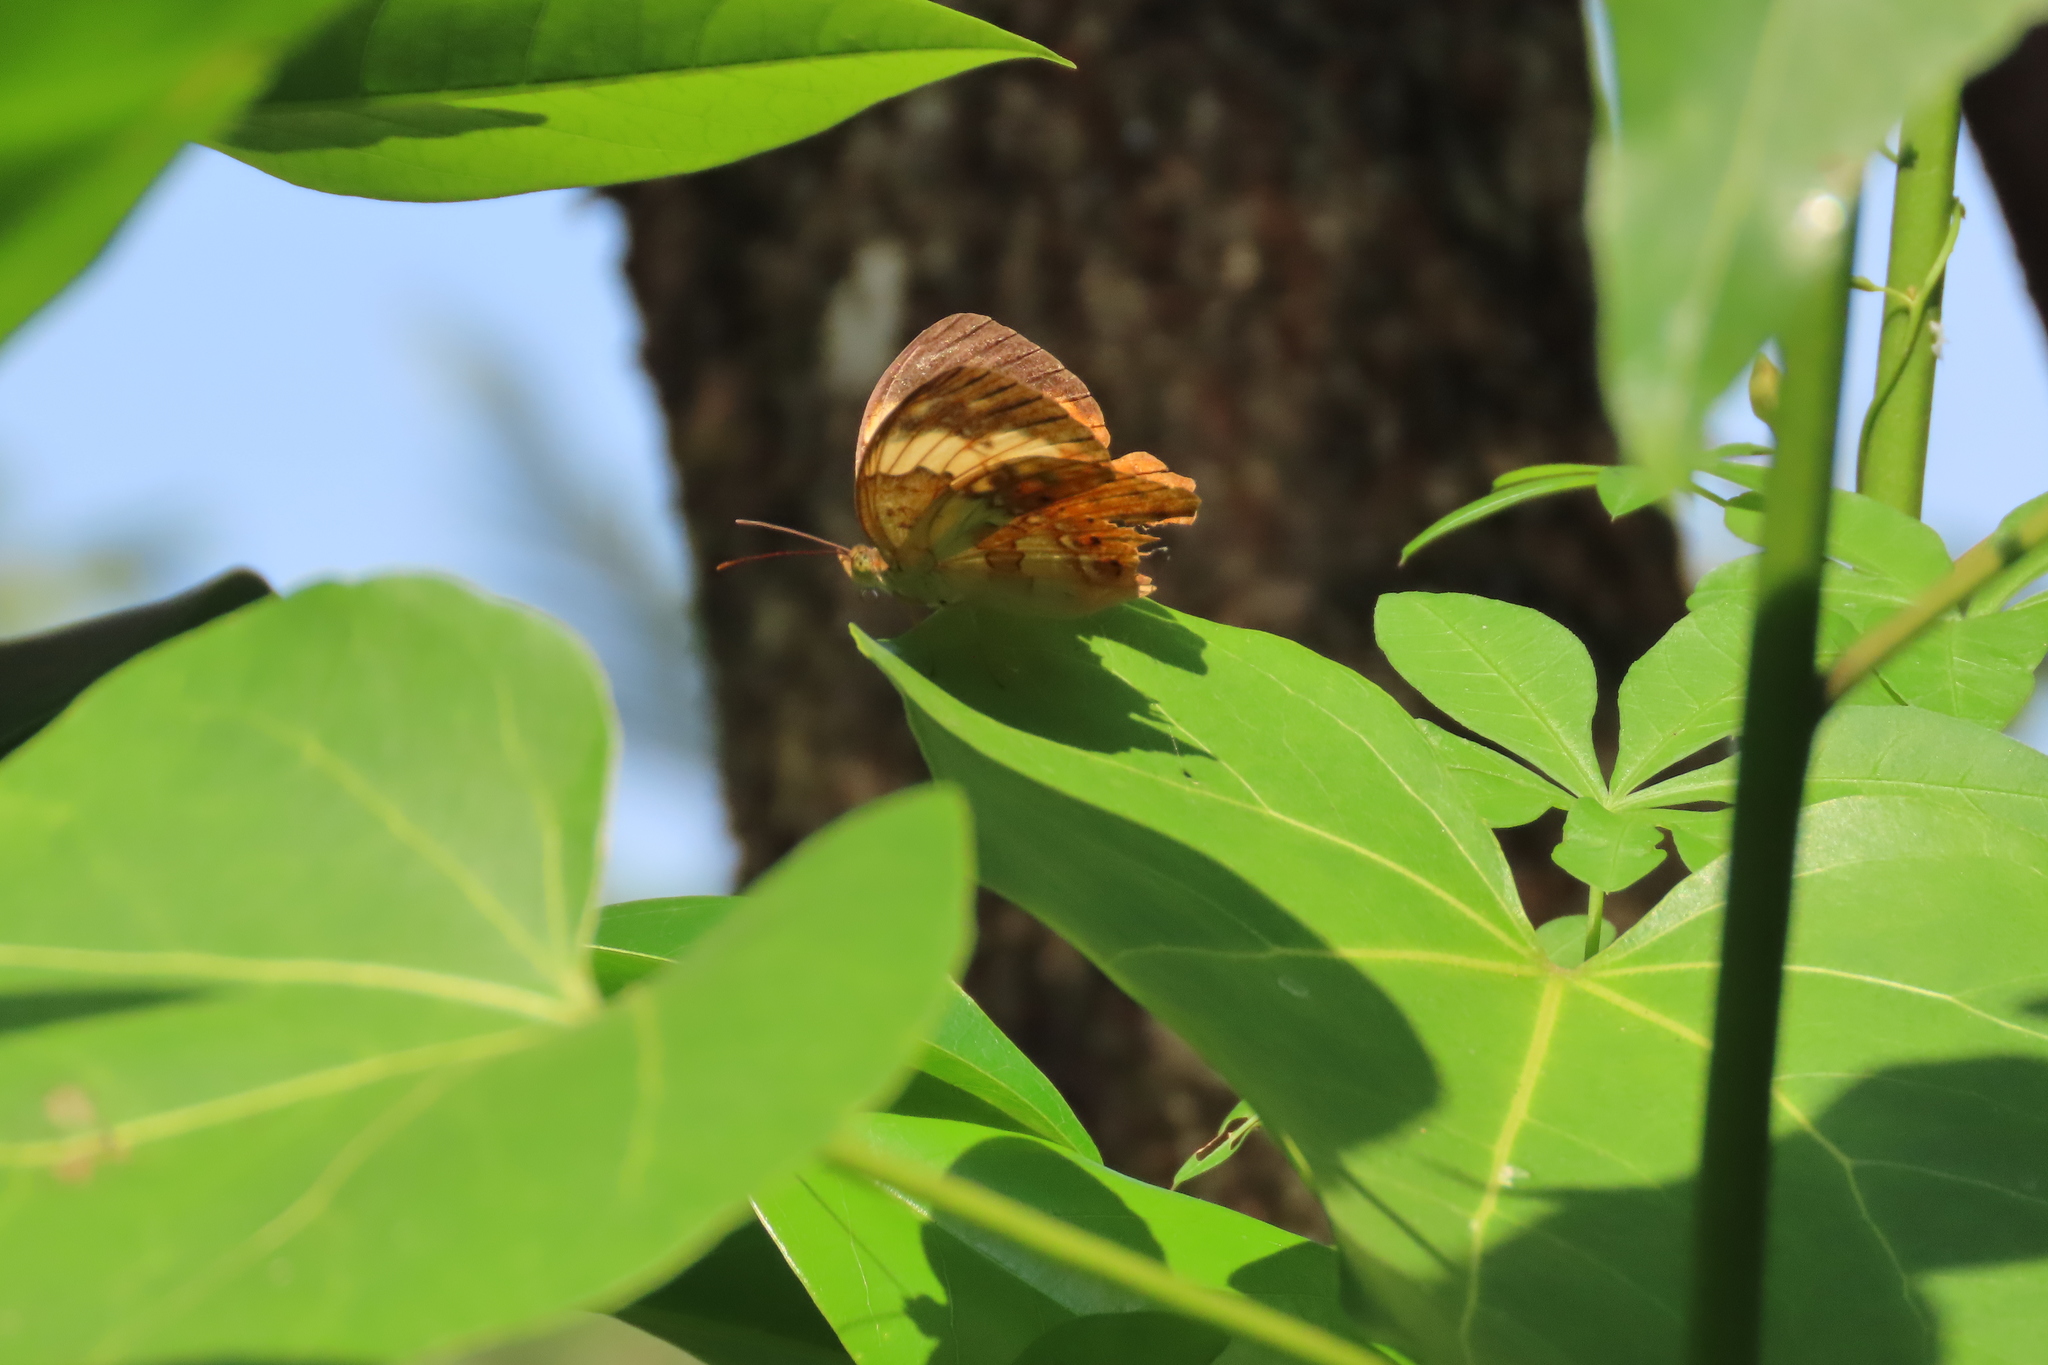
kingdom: Animalia
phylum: Arthropoda
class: Insecta
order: Lepidoptera
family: Nymphalidae
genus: Cupha
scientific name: Cupha erymanthis
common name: Rustic
